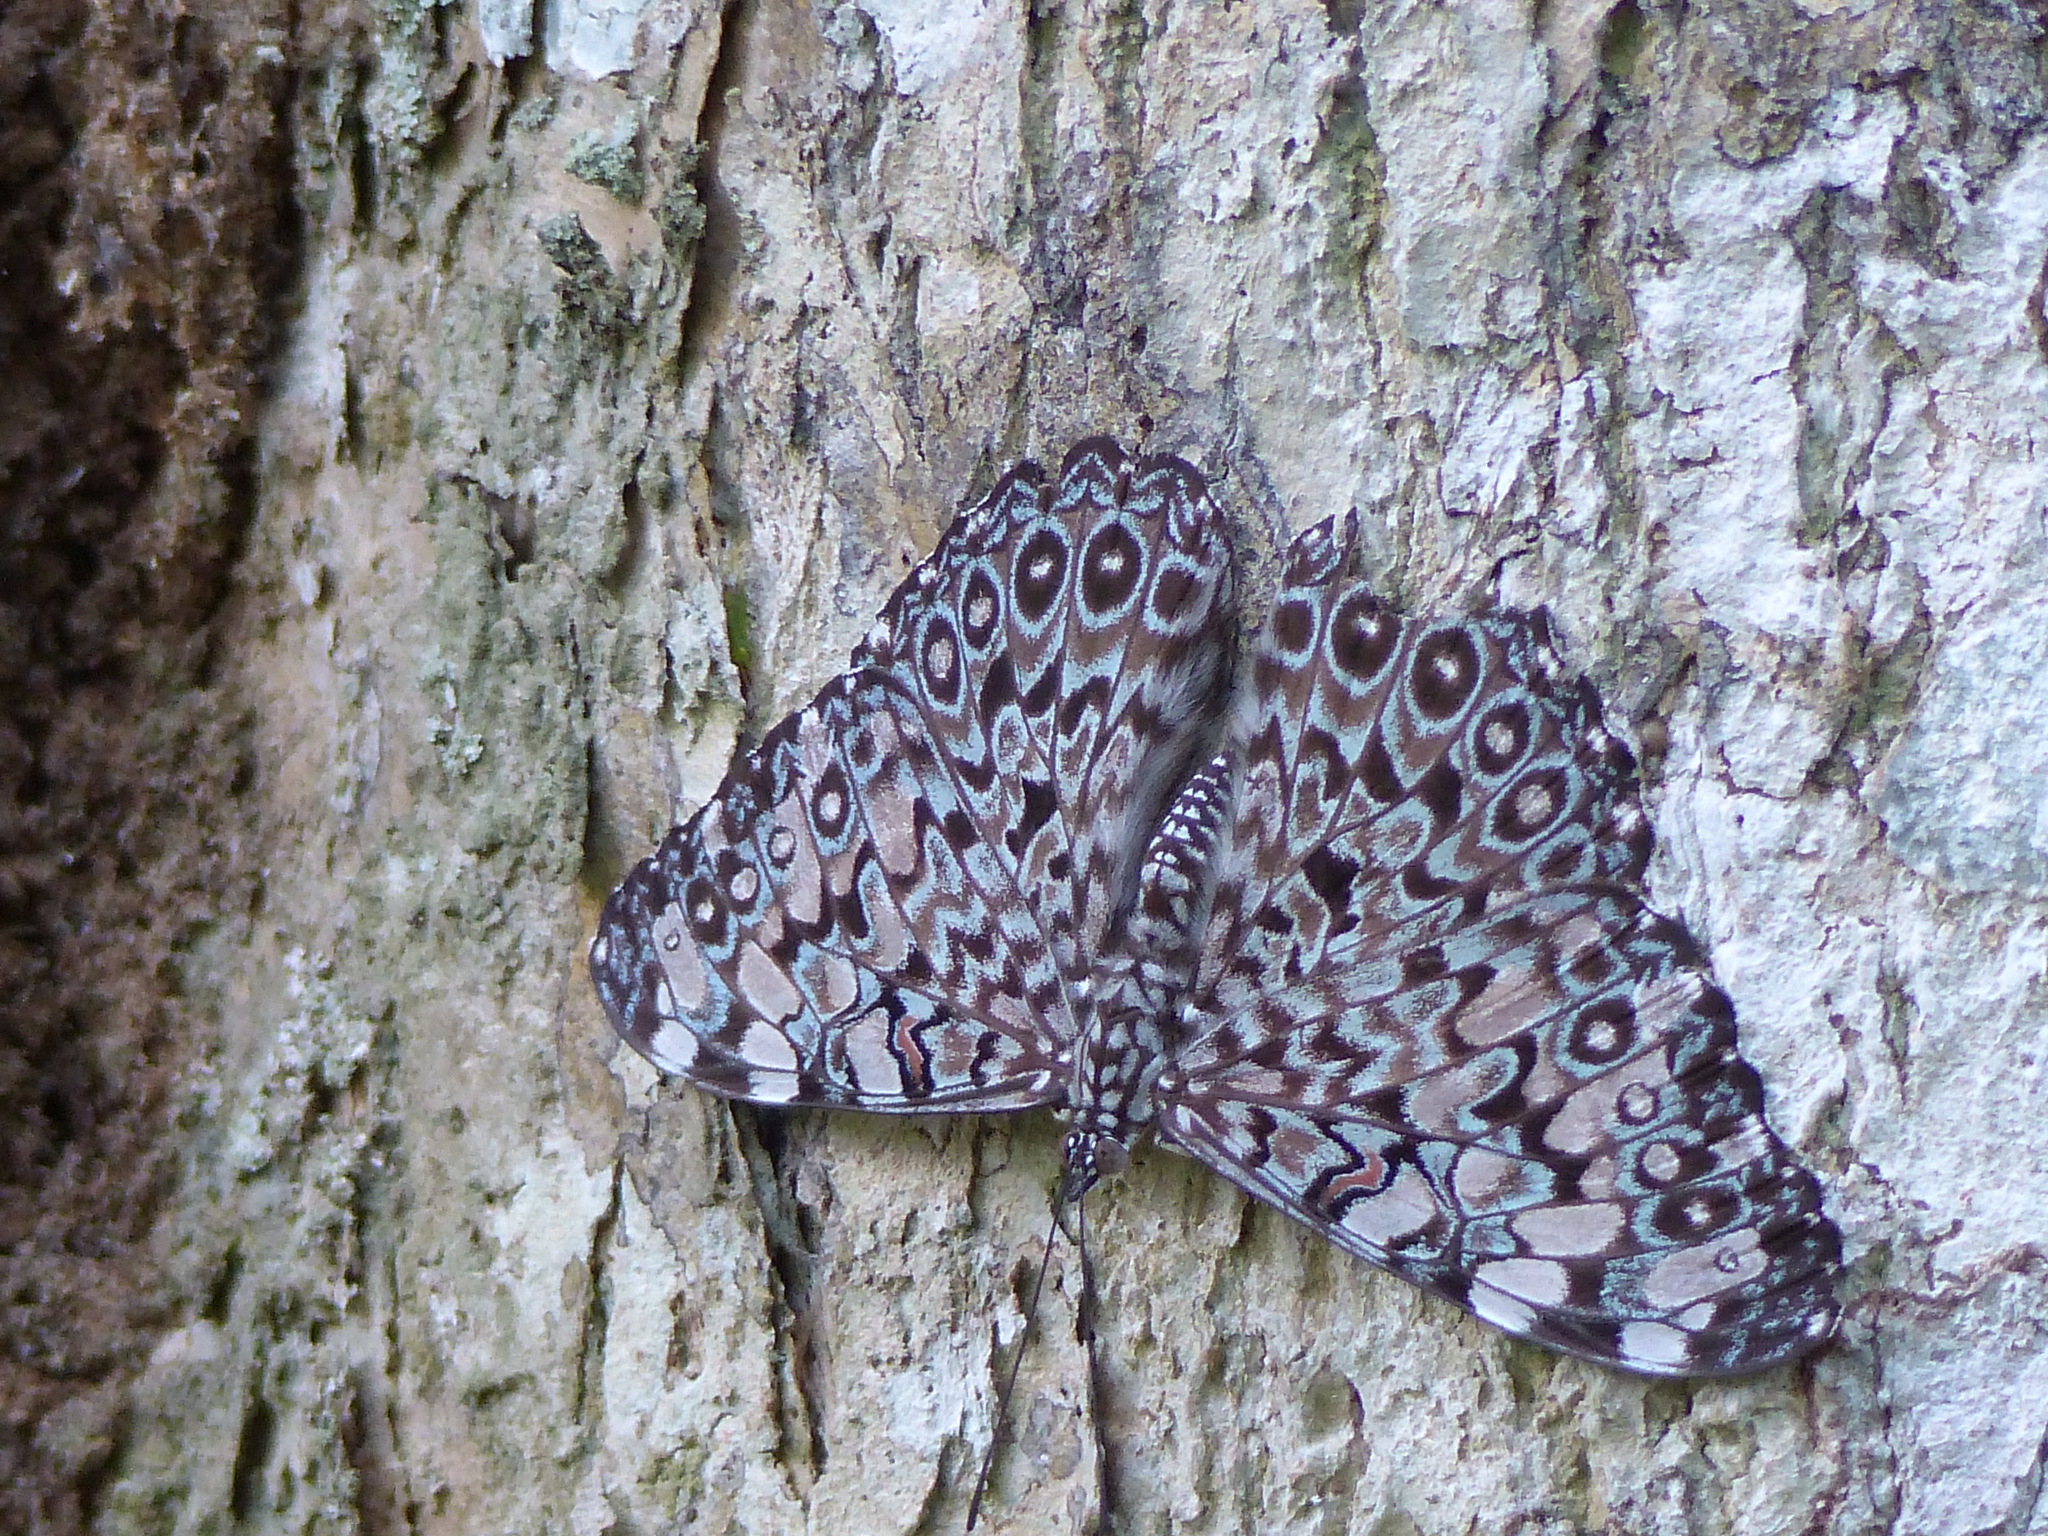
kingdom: Animalia
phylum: Arthropoda
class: Insecta
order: Lepidoptera
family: Nymphalidae
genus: Hamadryas
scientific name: Hamadryas feronia
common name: Variable cracker
